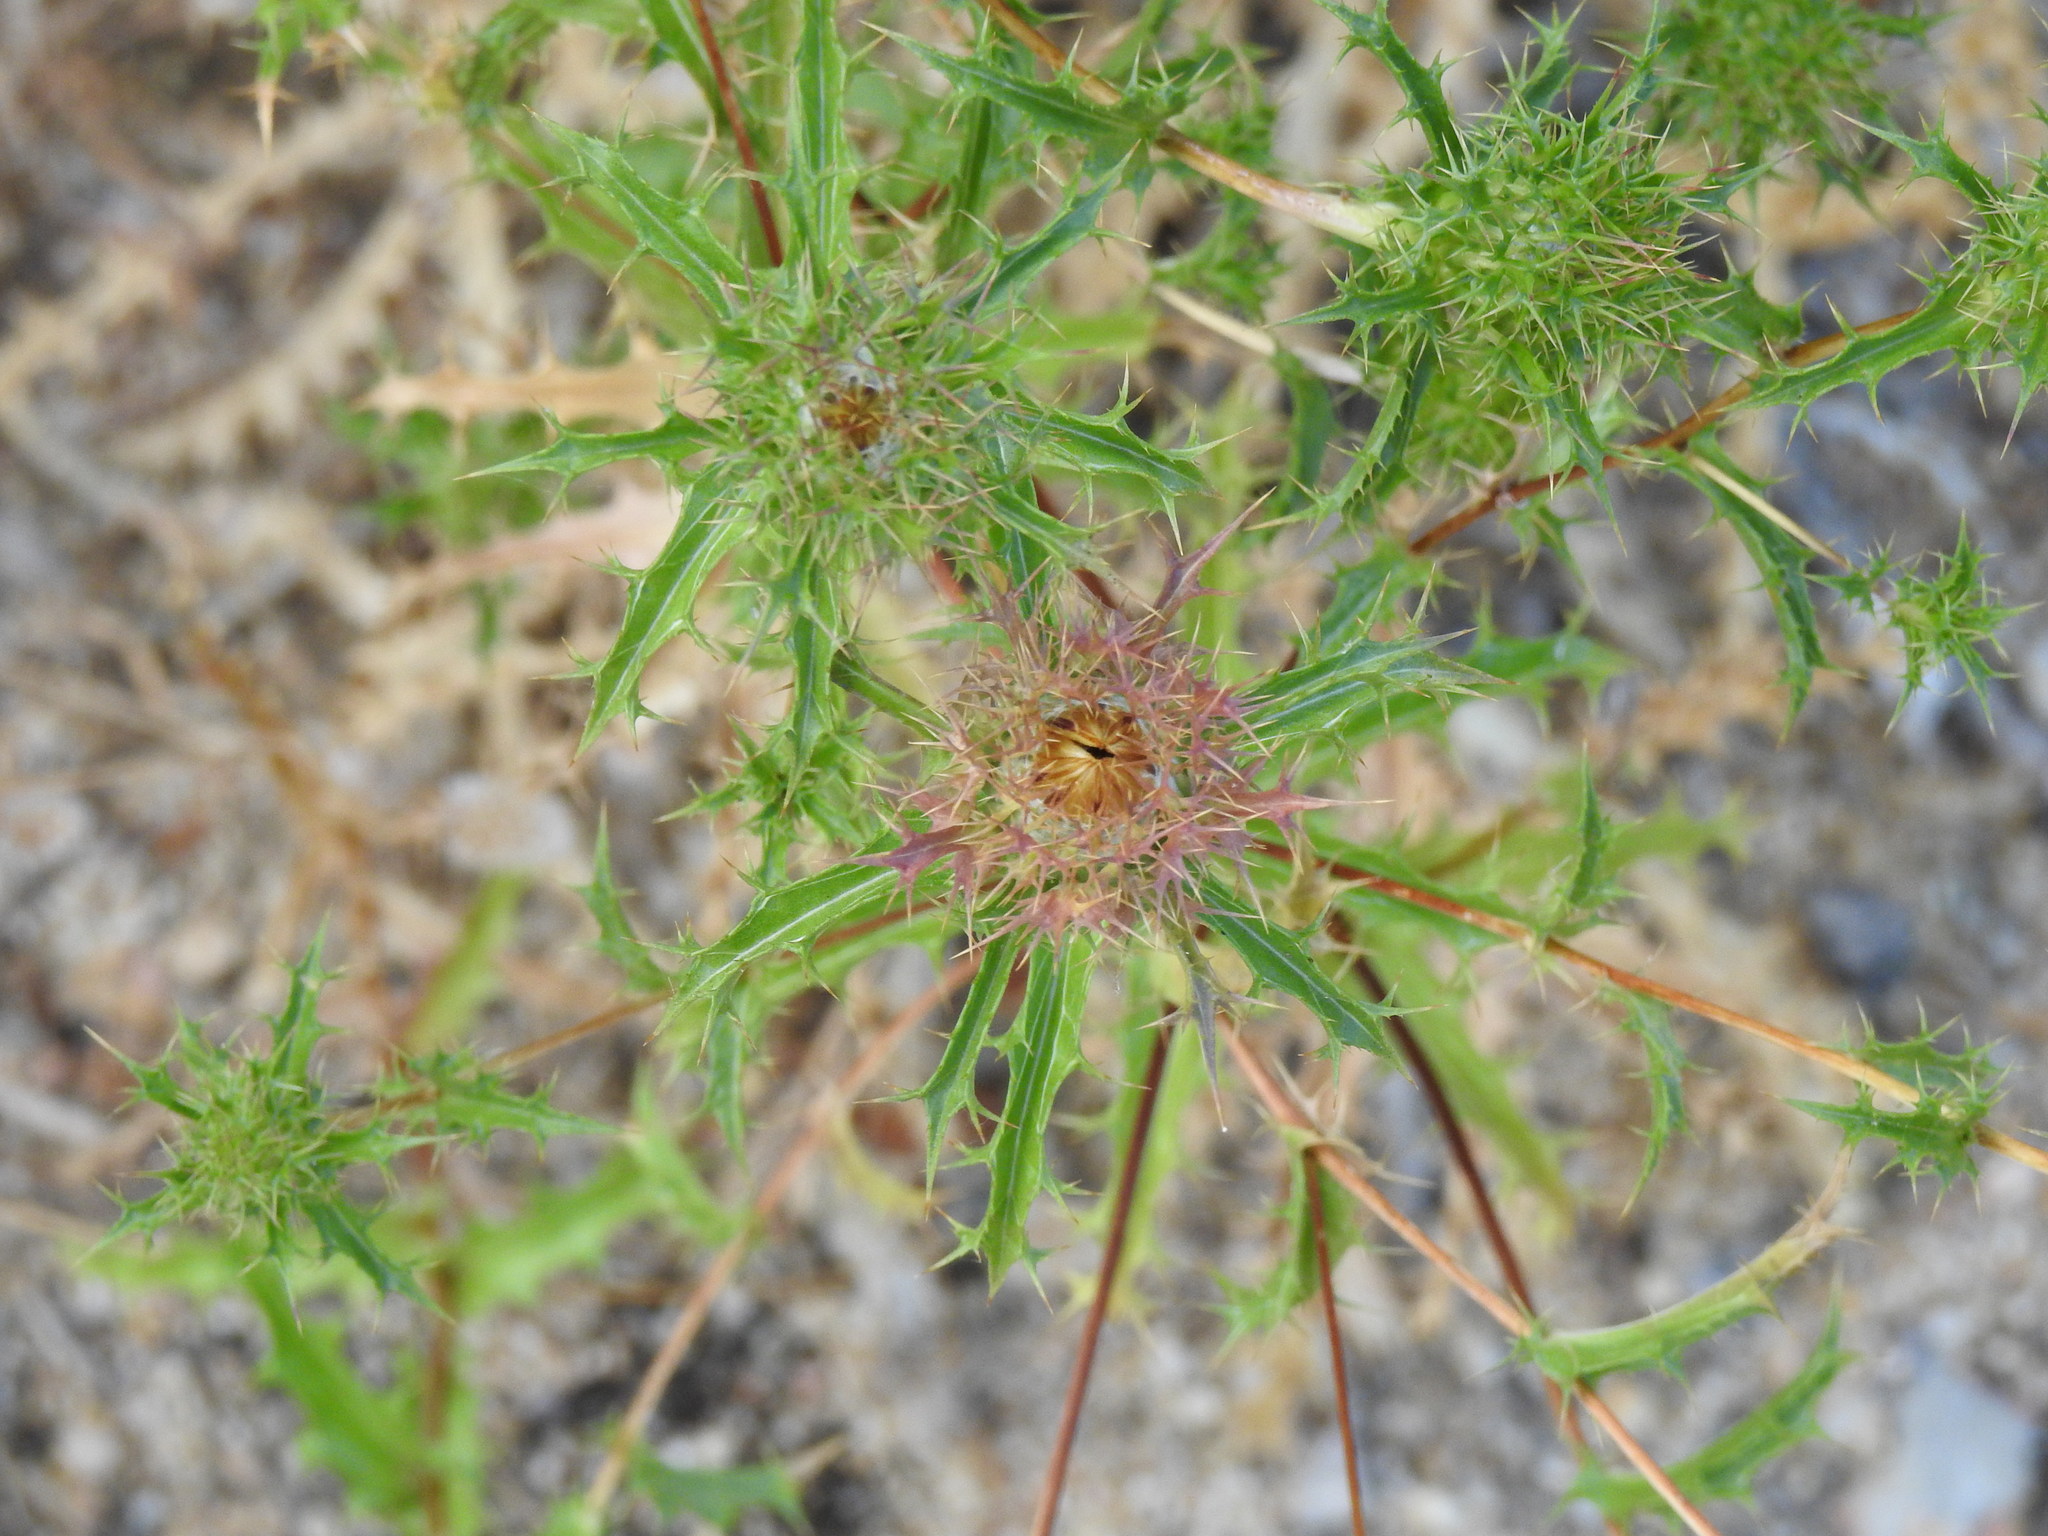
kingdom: Plantae
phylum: Tracheophyta
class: Magnoliopsida
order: Asterales
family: Asteraceae
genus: Carlina
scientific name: Carlina hispanica
